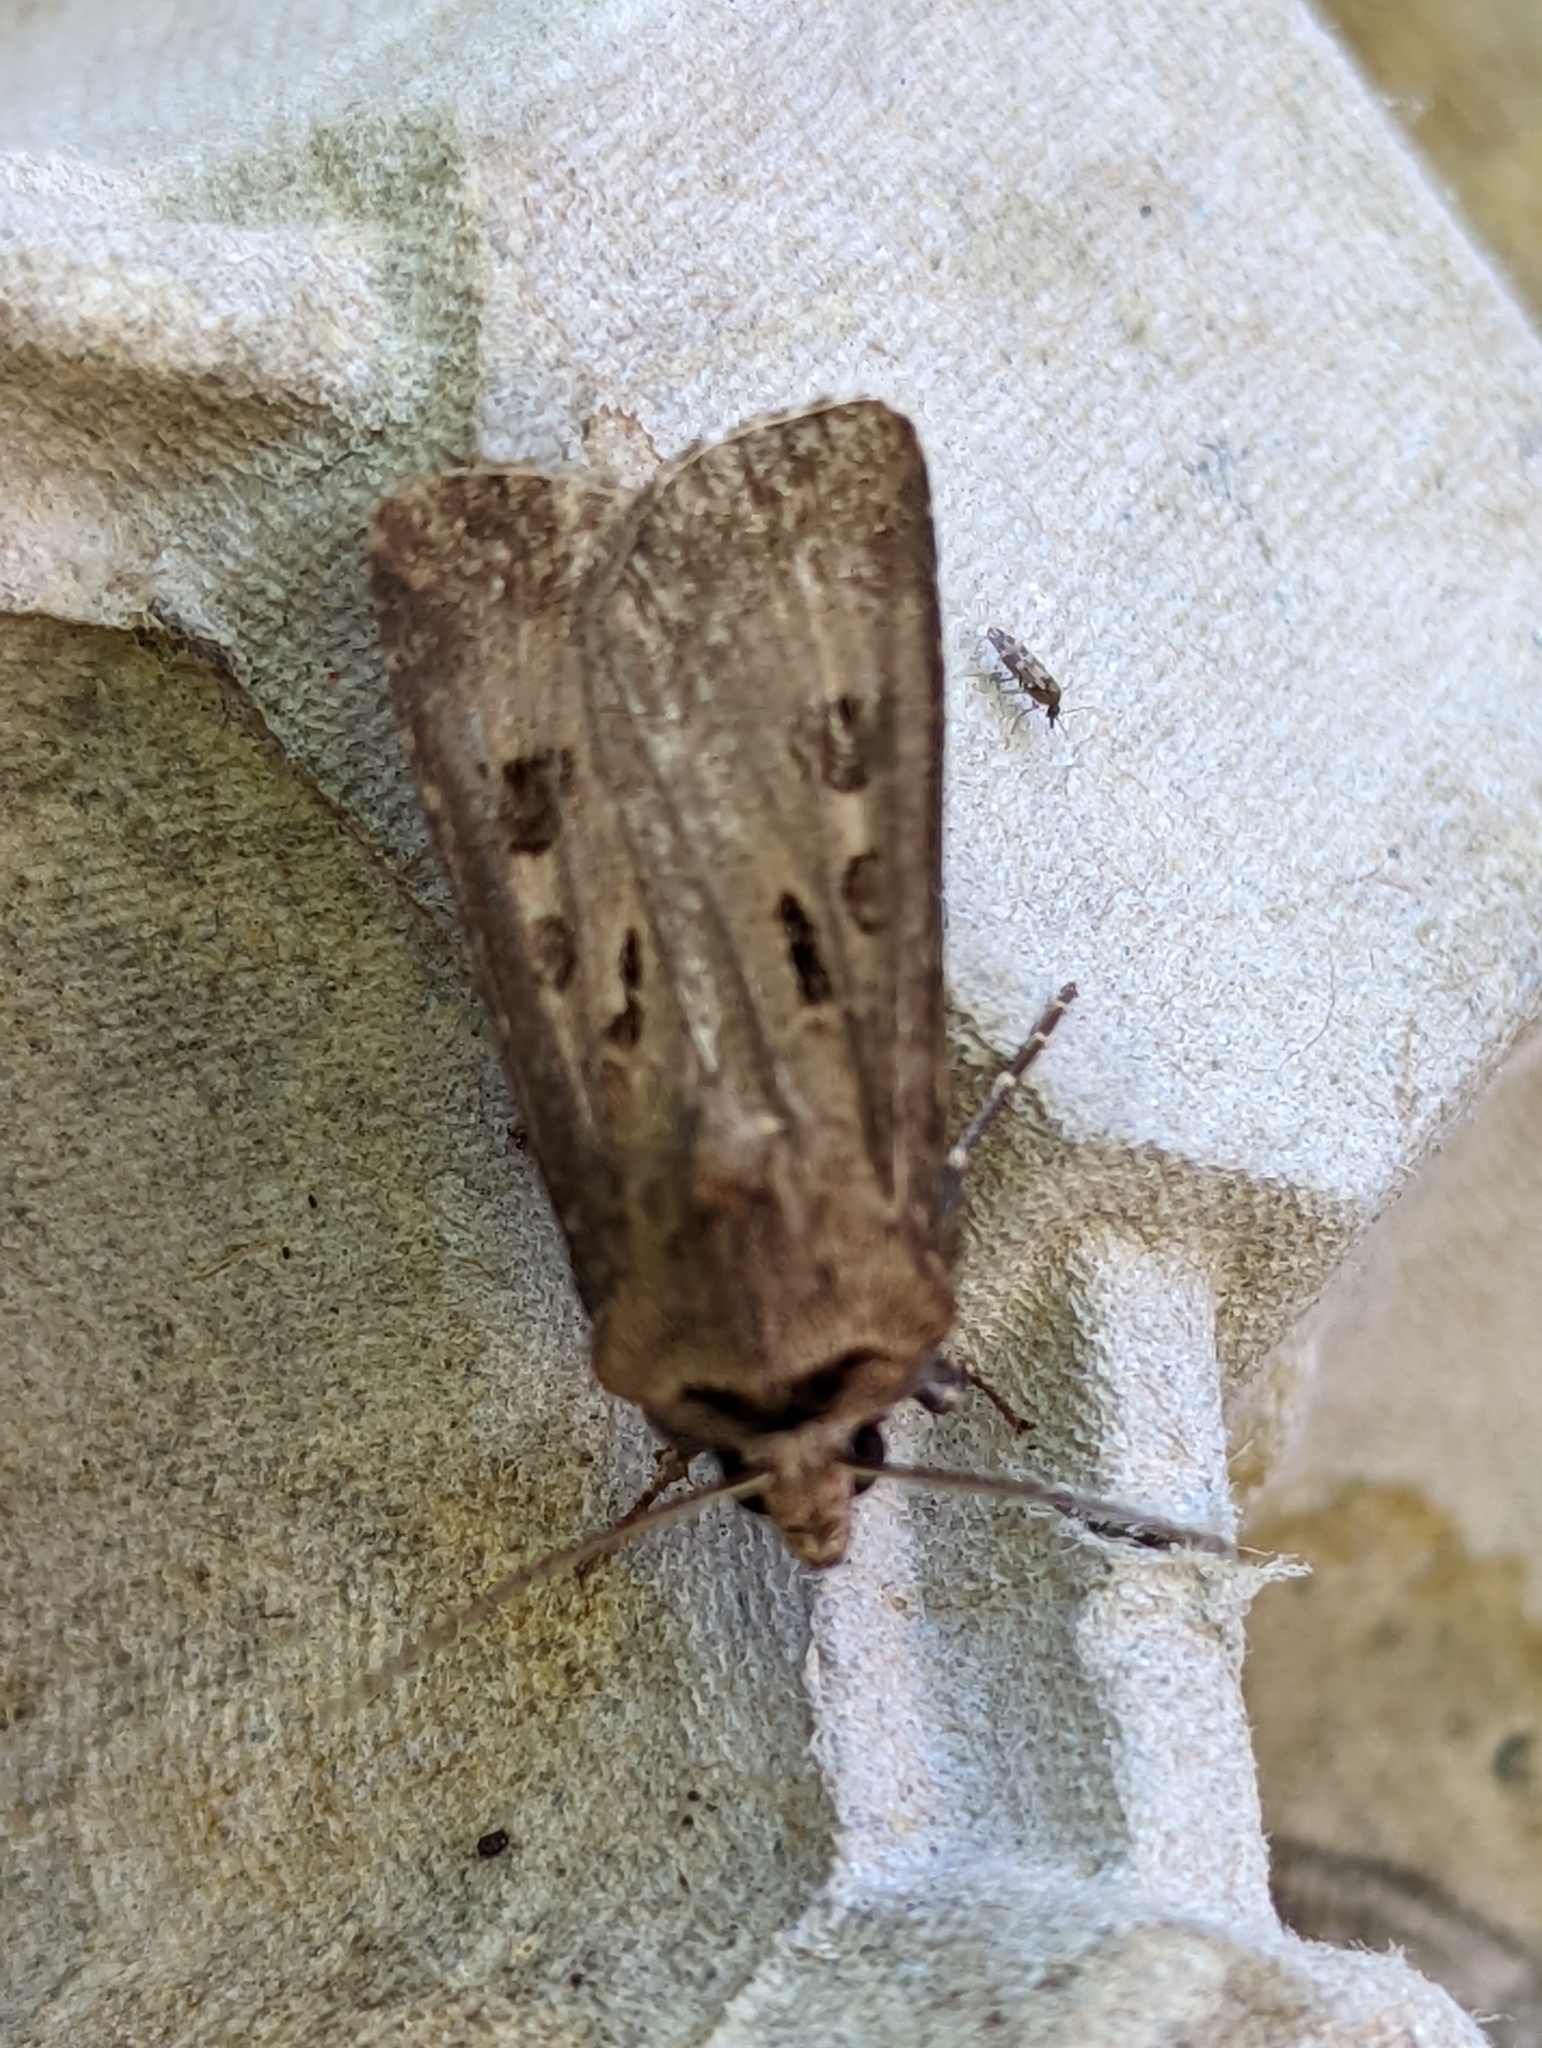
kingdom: Animalia
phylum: Arthropoda
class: Insecta
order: Lepidoptera
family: Noctuidae
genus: Agrotis
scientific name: Agrotis exclamationis
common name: Heart and dart
